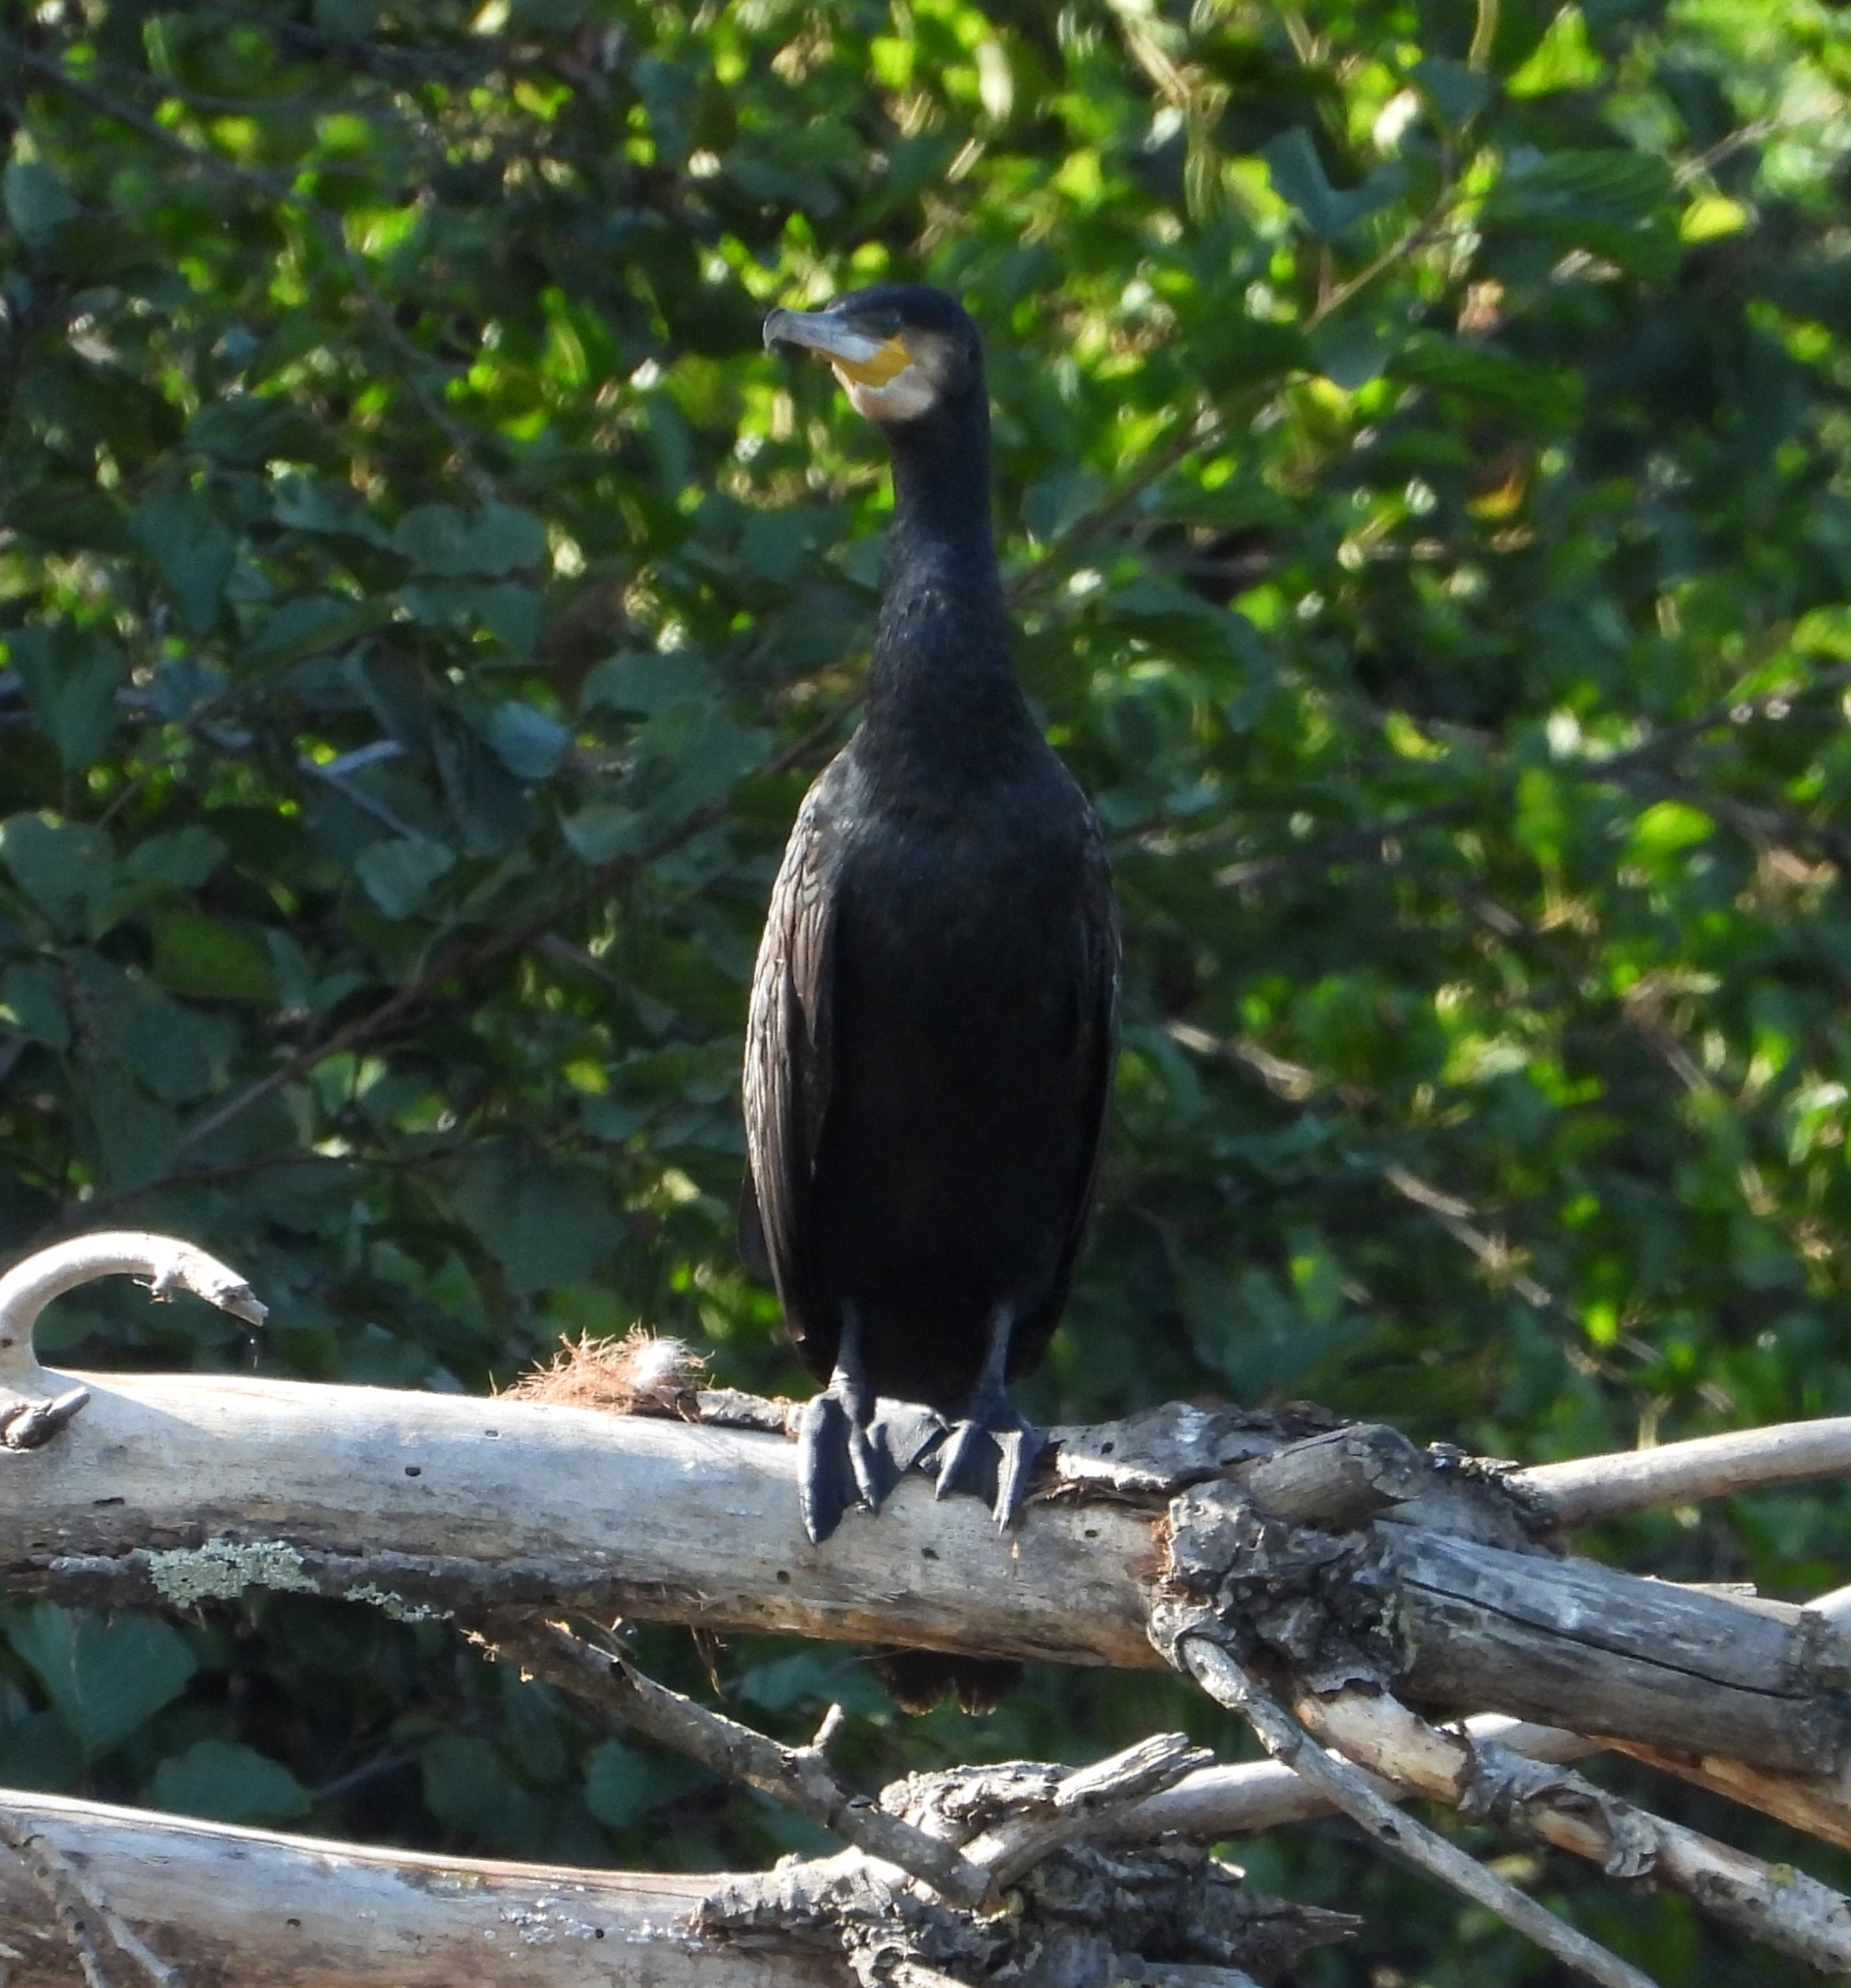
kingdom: Animalia
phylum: Chordata
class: Aves
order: Suliformes
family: Phalacrocoracidae
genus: Phalacrocorax
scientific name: Phalacrocorax carbo
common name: Great cormorant
